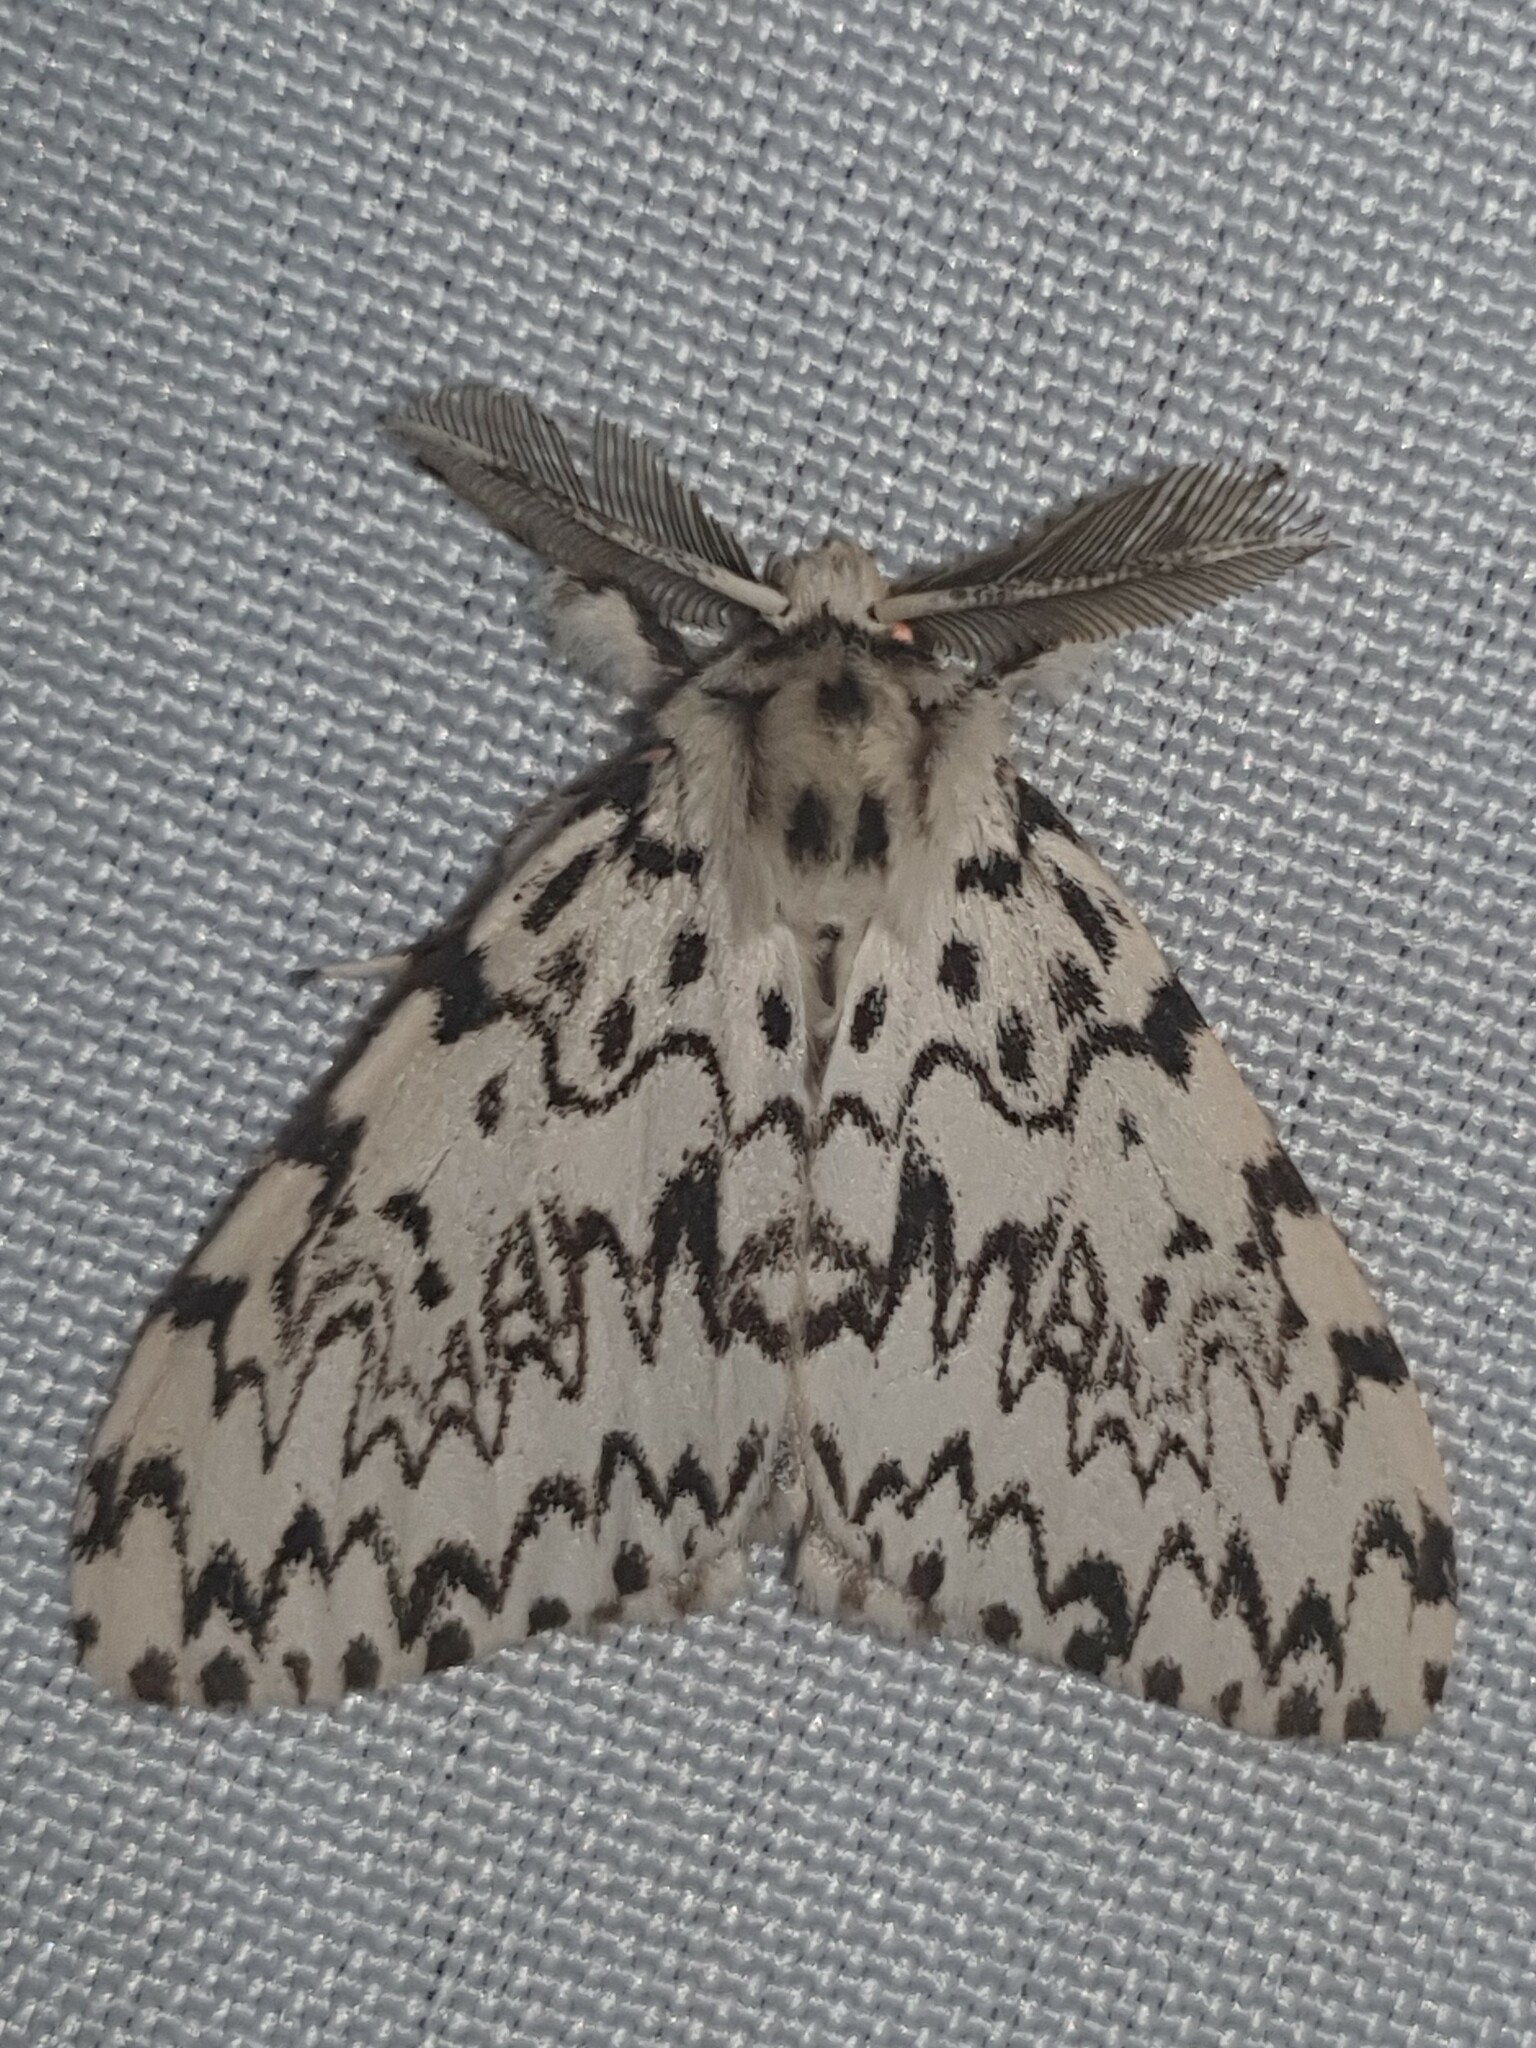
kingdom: Animalia
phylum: Arthropoda
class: Insecta
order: Lepidoptera
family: Erebidae
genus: Lymantria
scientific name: Lymantria monacha
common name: Black arches
